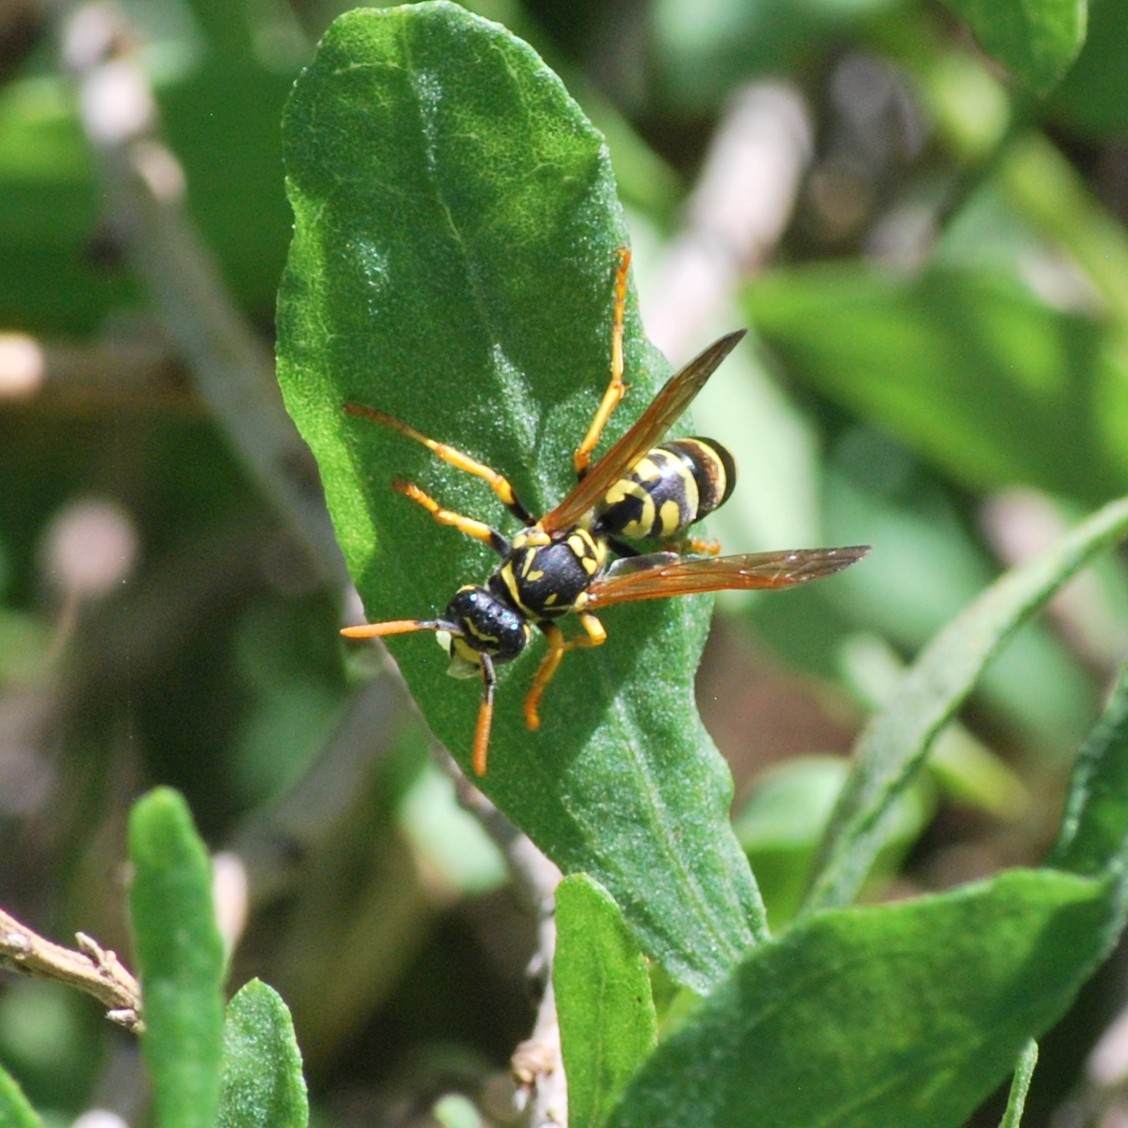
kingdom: Animalia
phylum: Arthropoda
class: Insecta
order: Hymenoptera
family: Eumenidae
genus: Polistes
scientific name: Polistes dominula
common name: Paper wasp
